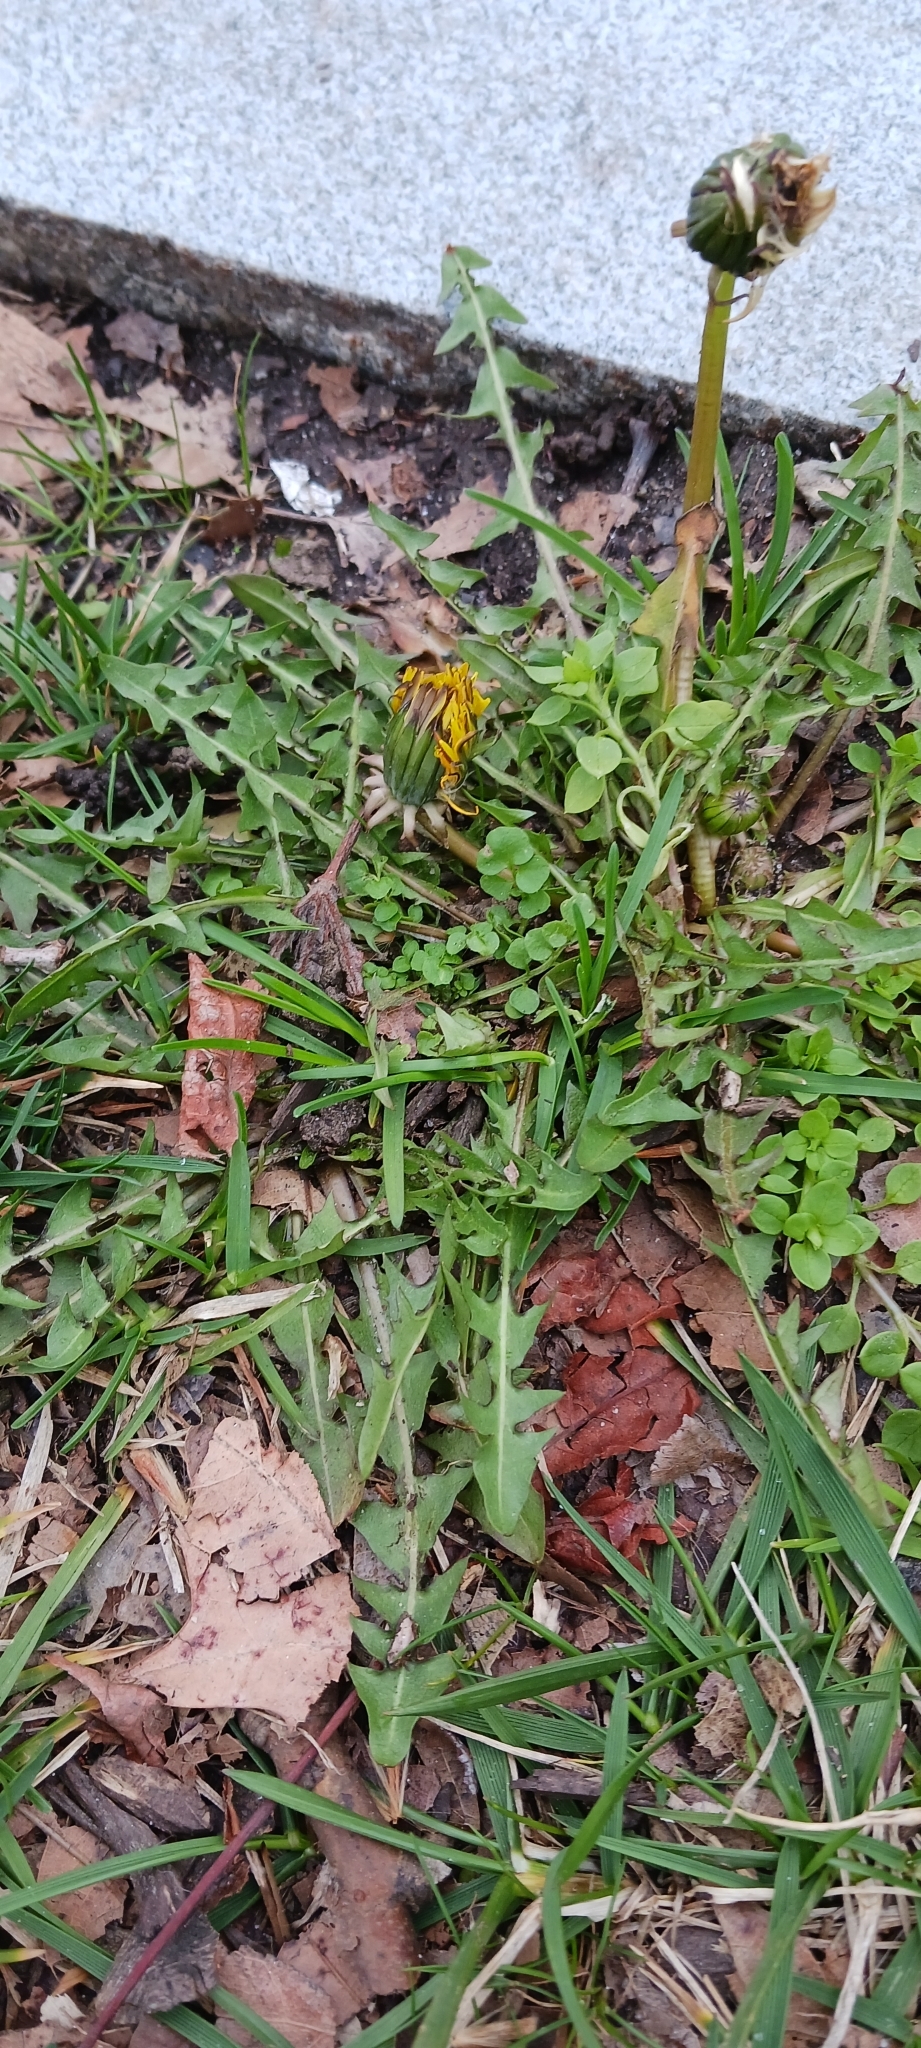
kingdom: Plantae
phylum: Tracheophyta
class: Magnoliopsida
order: Asterales
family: Asteraceae
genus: Taraxacum
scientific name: Taraxacum
